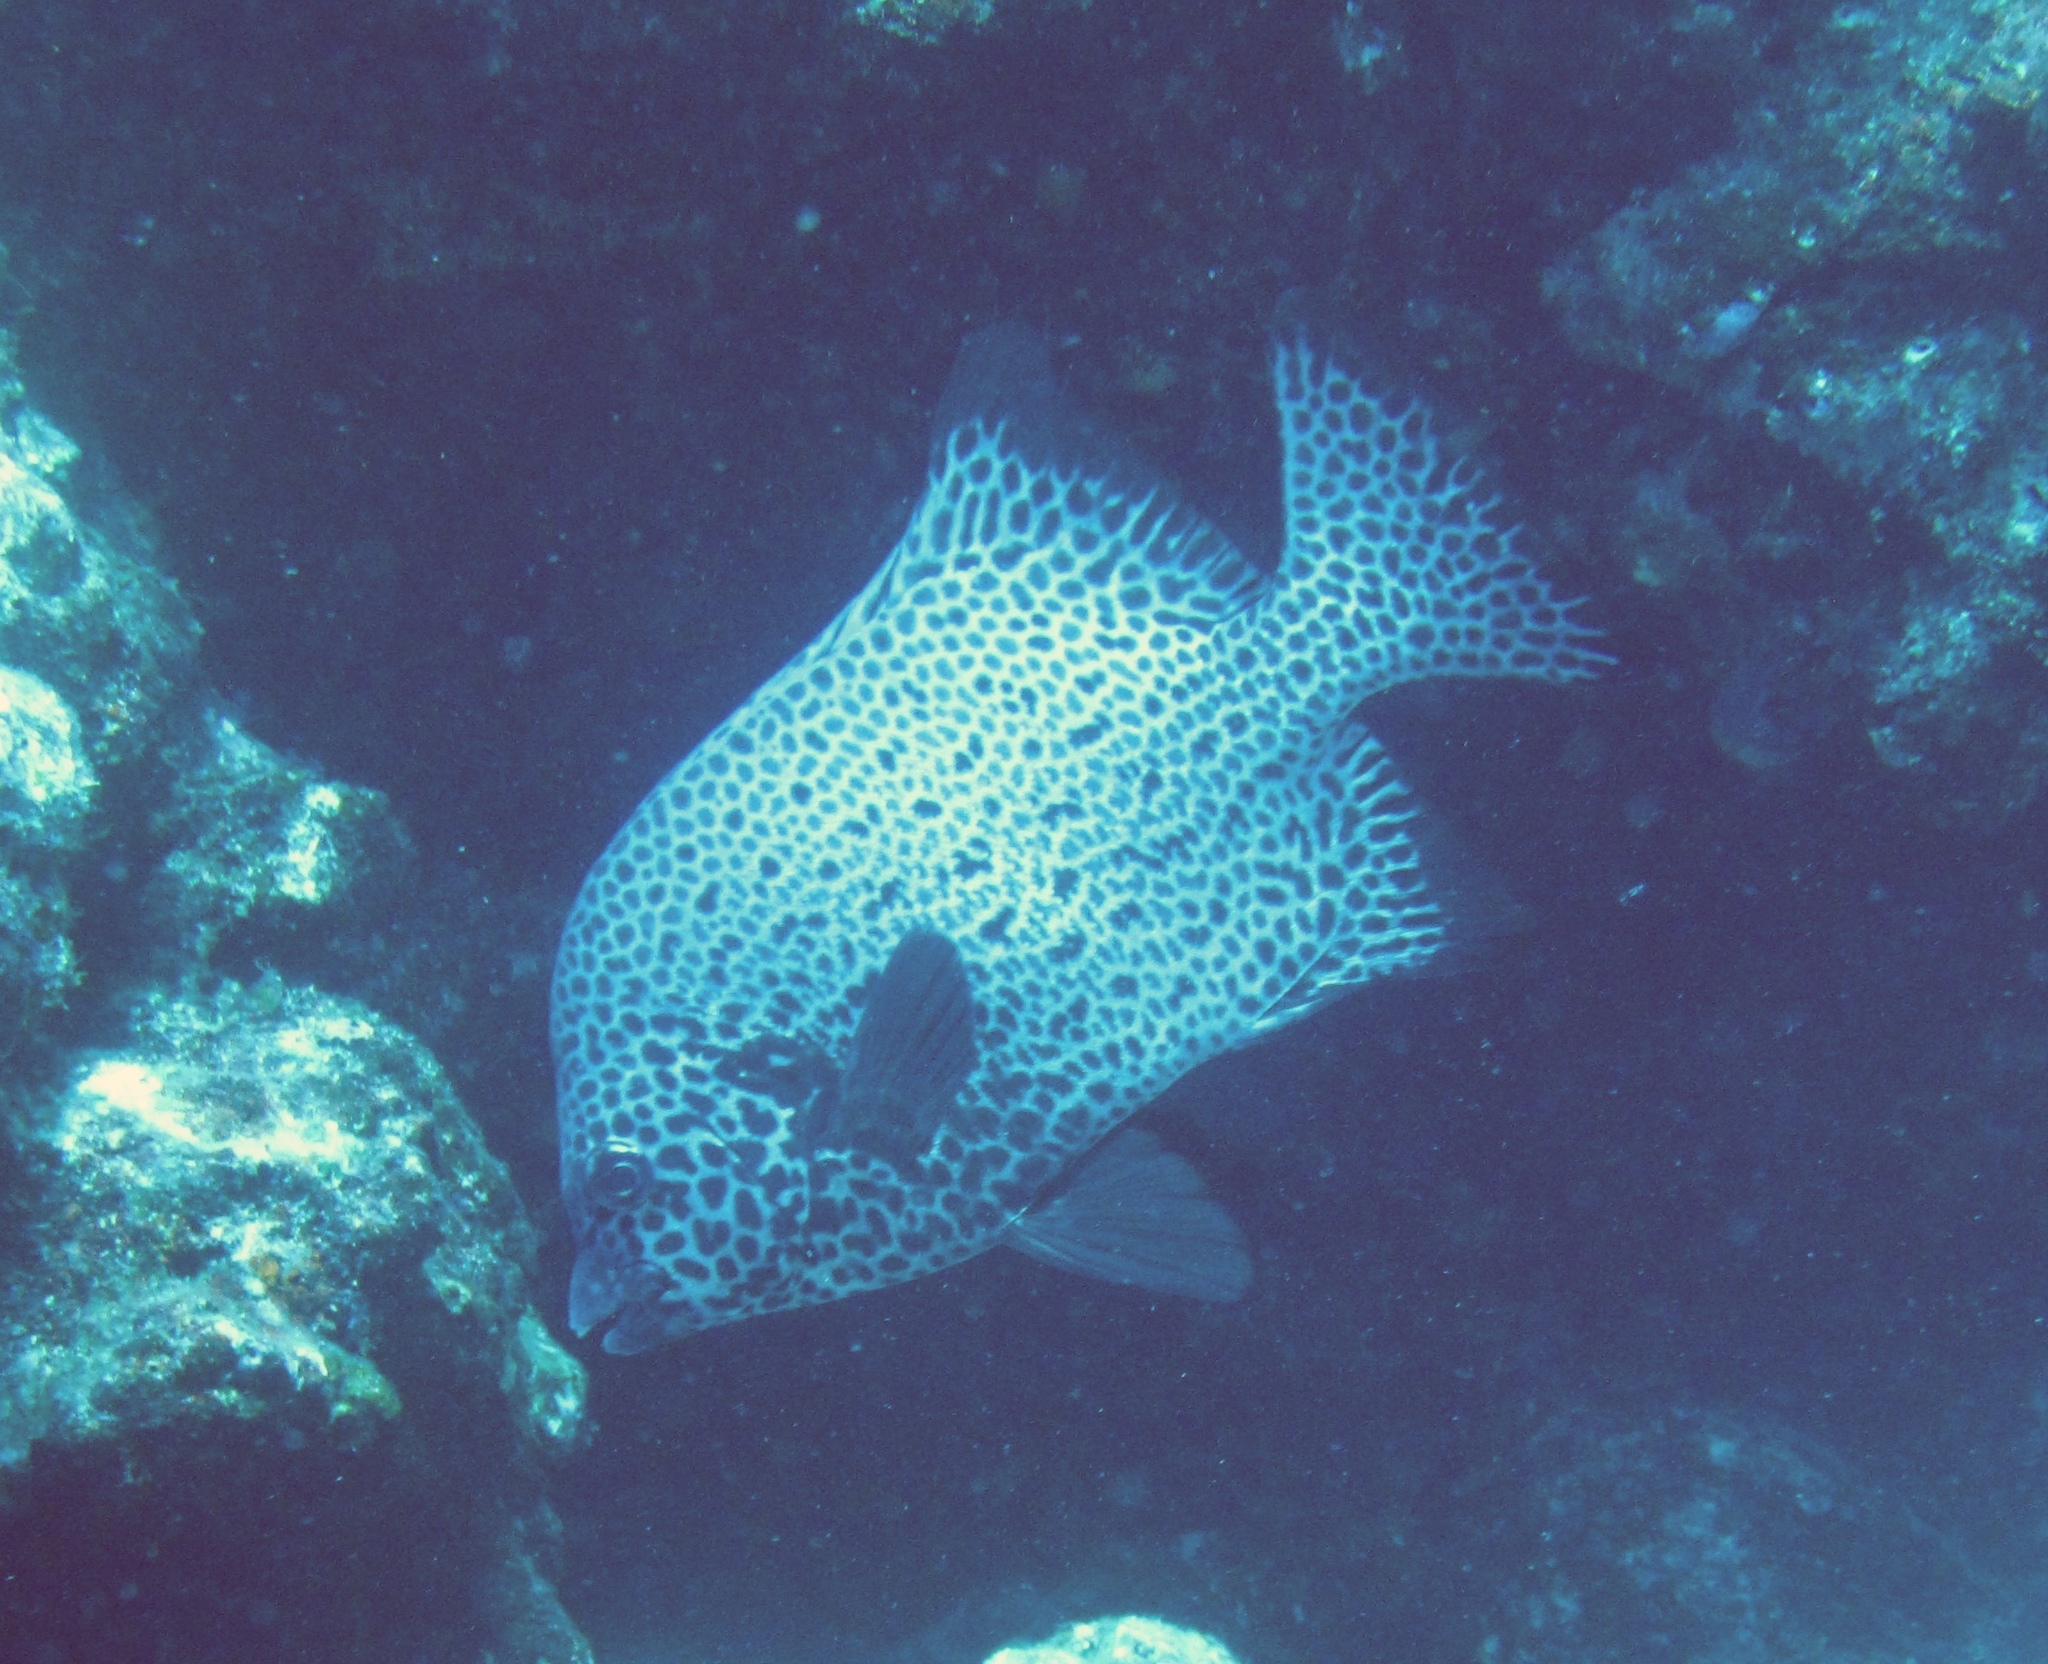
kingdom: Animalia
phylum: Chordata
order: Perciformes
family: Oplegnathidae
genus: Oplegnathus
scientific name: Oplegnathus punctatus
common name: Spotted knifejaw
